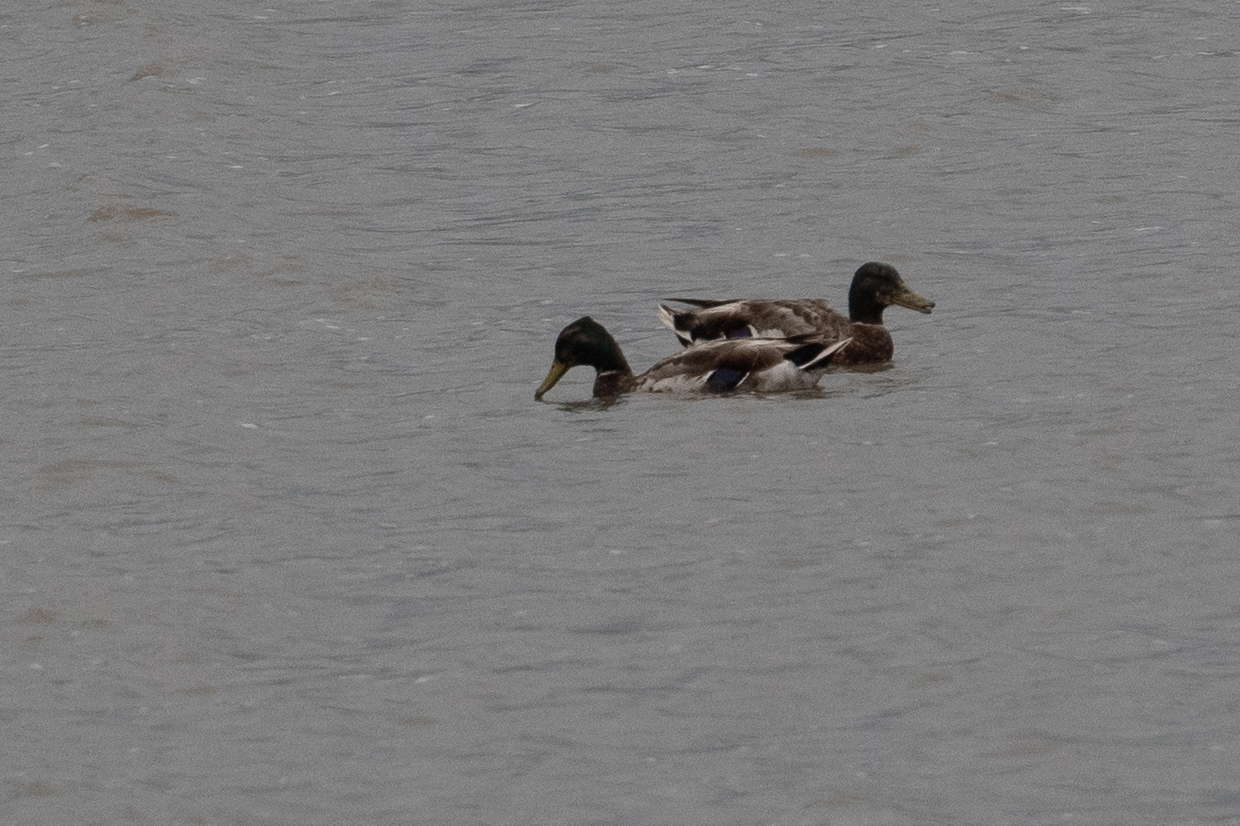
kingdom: Animalia
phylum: Chordata
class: Aves
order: Anseriformes
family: Anatidae
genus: Anas
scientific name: Anas platyrhynchos
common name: Mallard
